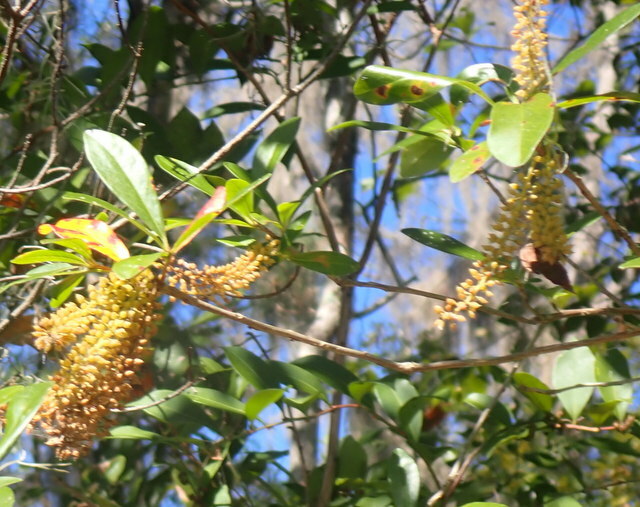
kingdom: Plantae
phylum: Tracheophyta
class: Magnoliopsida
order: Ericales
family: Cyrillaceae
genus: Cyrilla
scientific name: Cyrilla racemiflora
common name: Black titi
